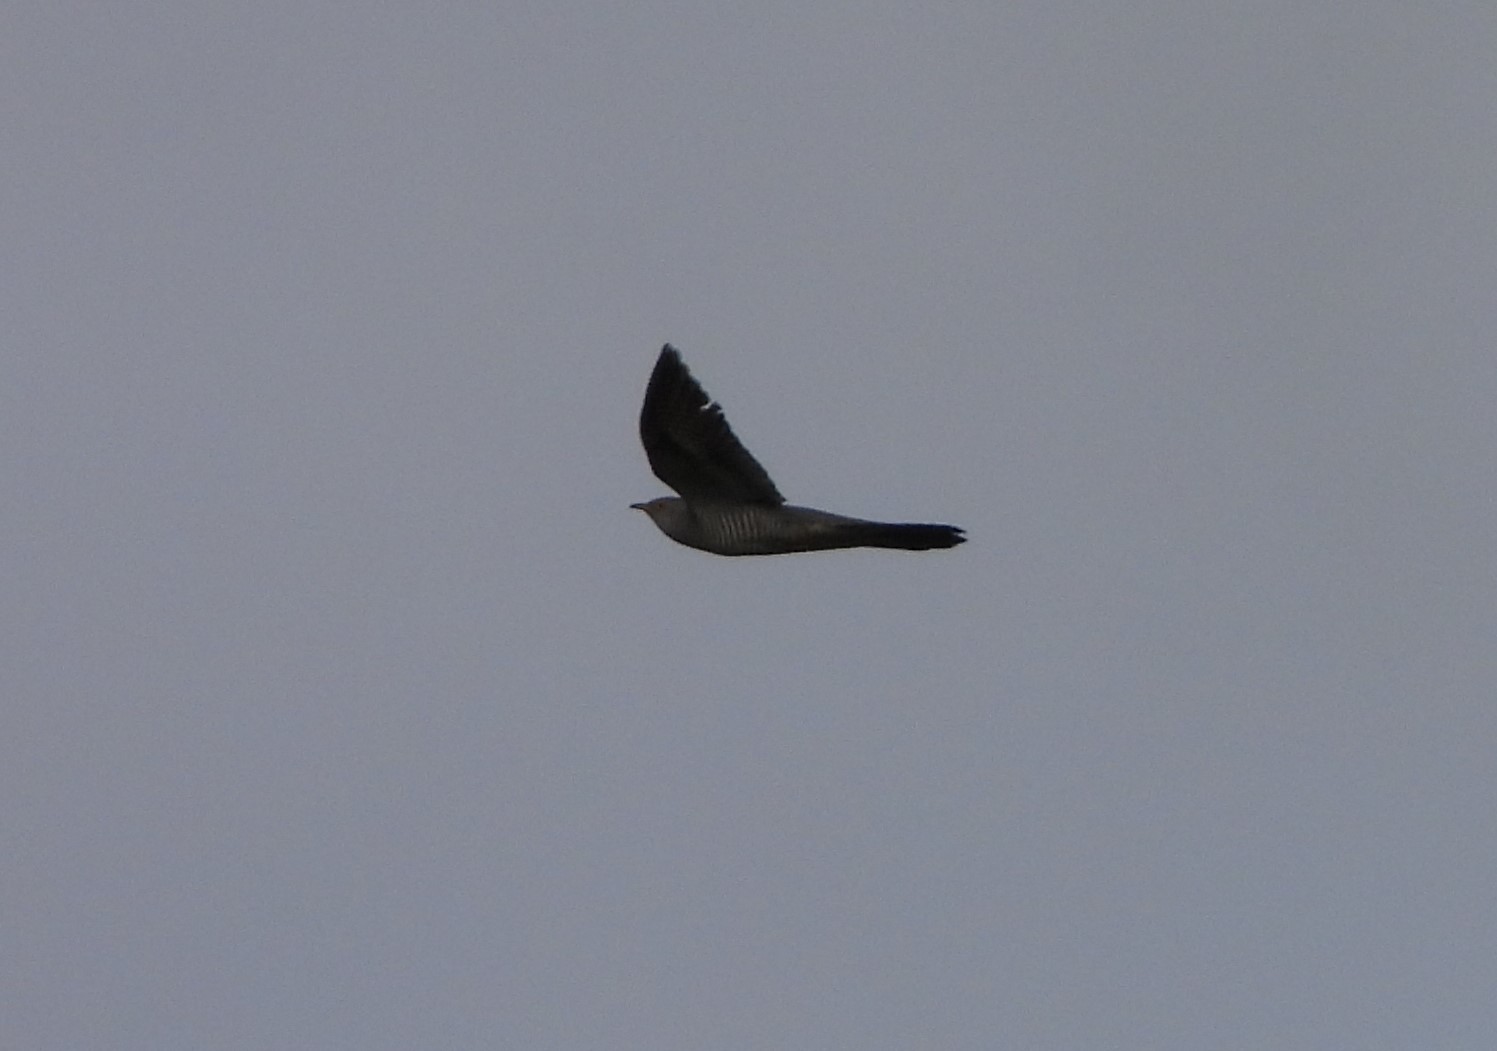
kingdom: Animalia
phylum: Chordata
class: Aves
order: Cuculiformes
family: Cuculidae
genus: Cuculus
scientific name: Cuculus canorus
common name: Common cuckoo
